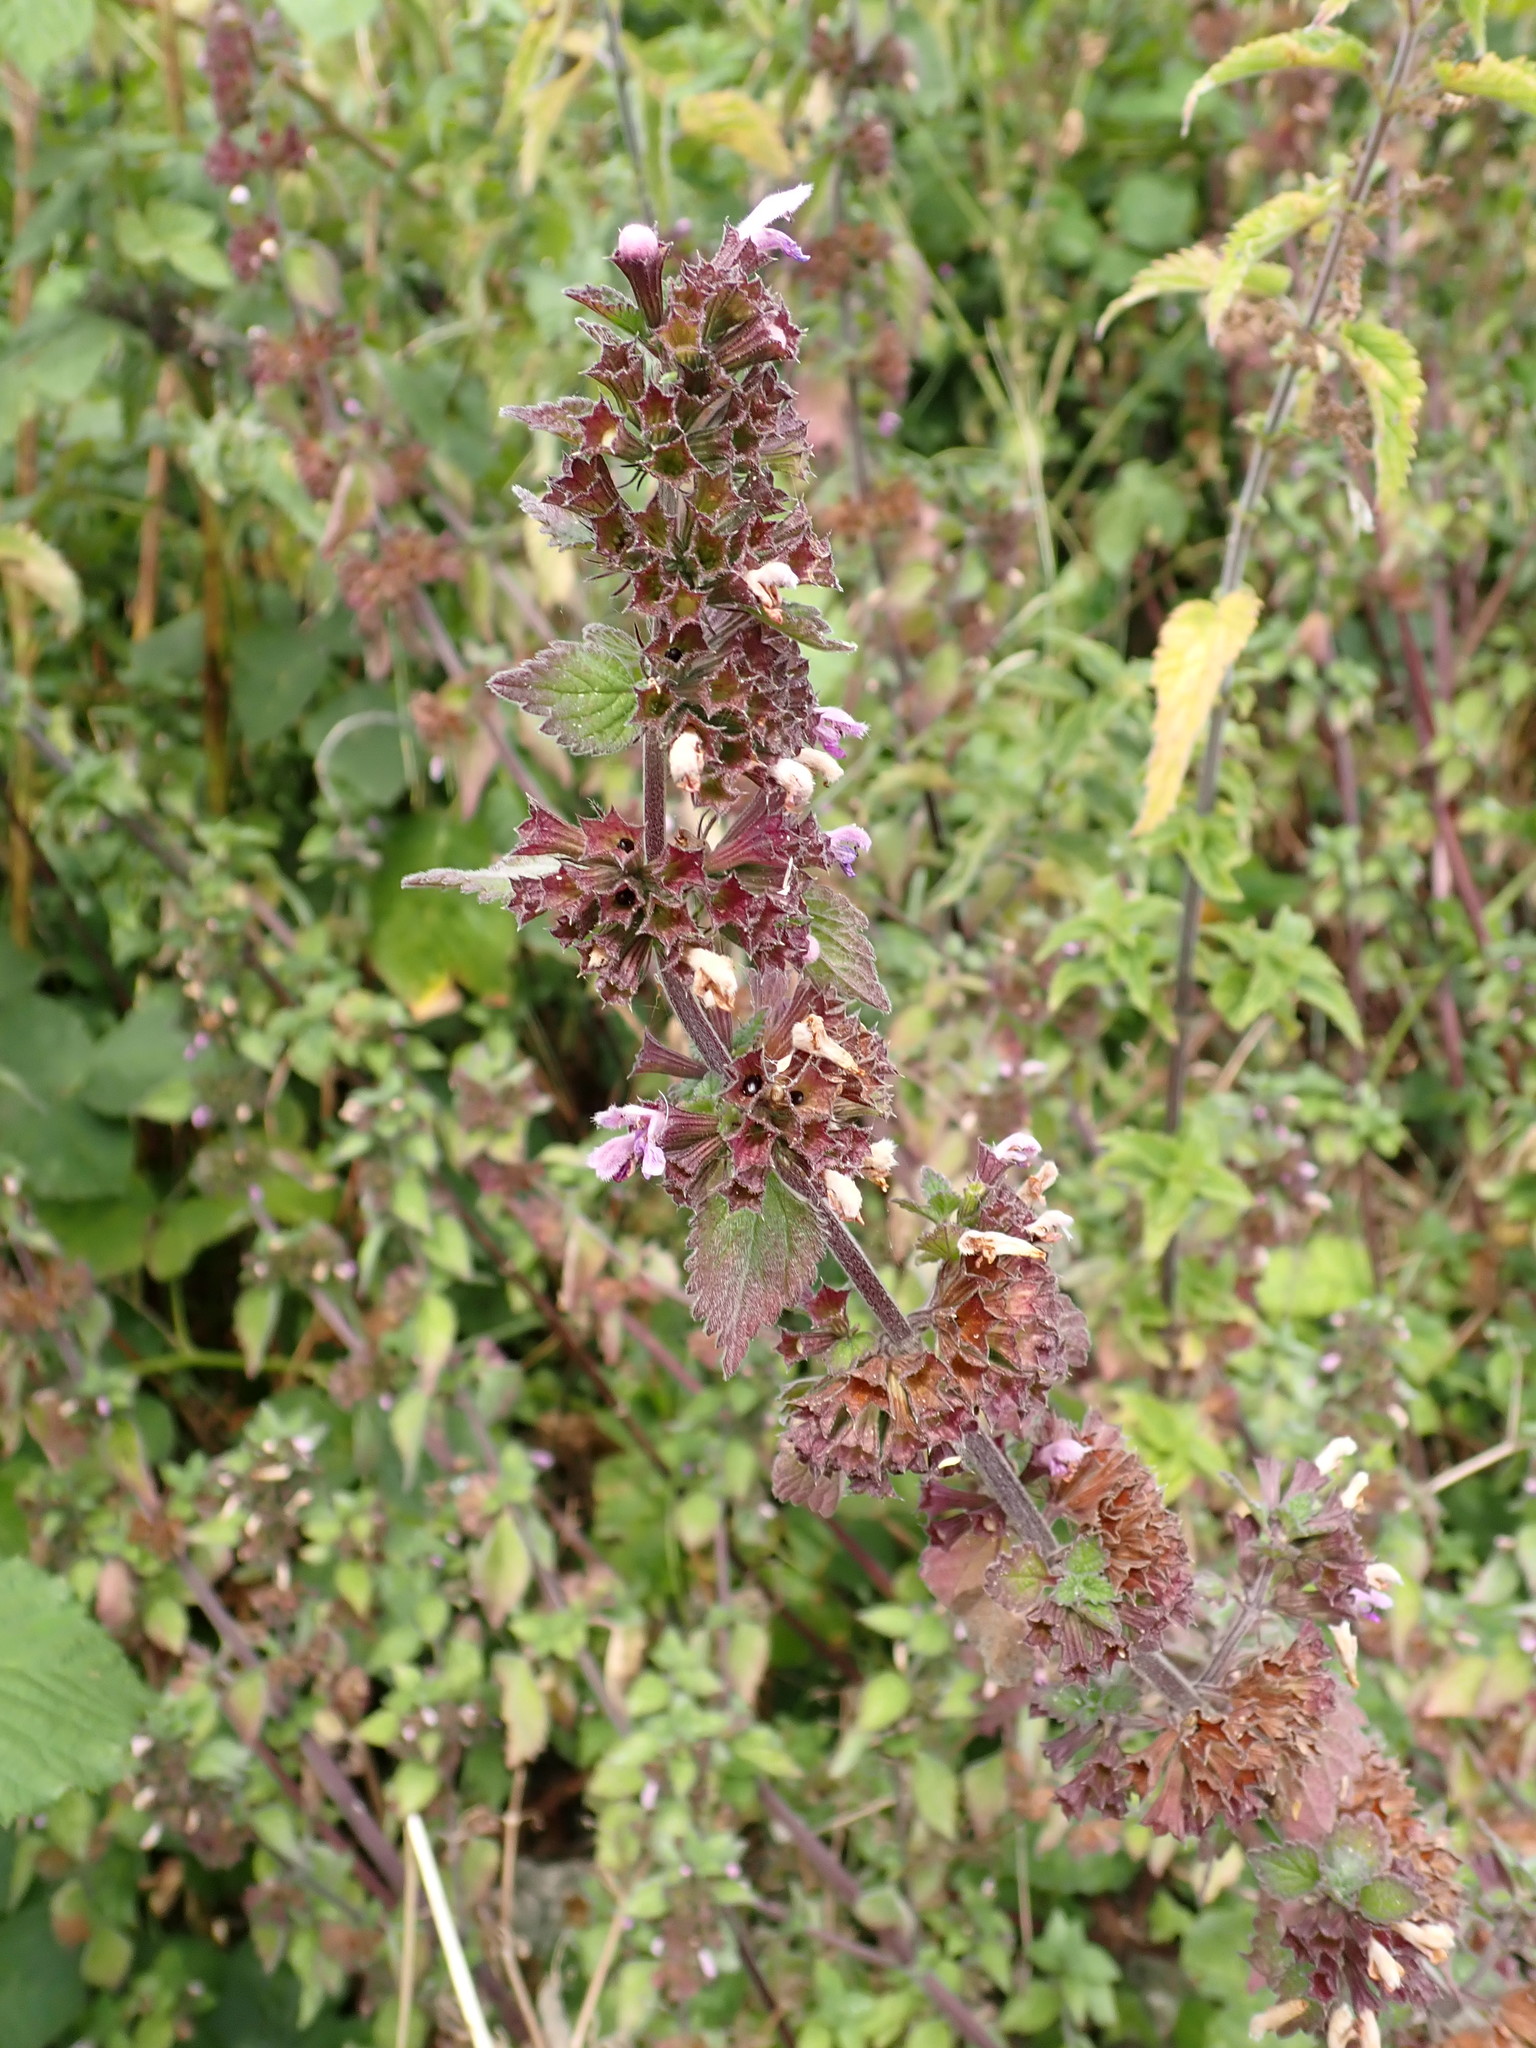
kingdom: Plantae
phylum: Tracheophyta
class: Magnoliopsida
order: Lamiales
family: Lamiaceae
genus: Ballota
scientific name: Ballota nigra
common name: Black horehound
